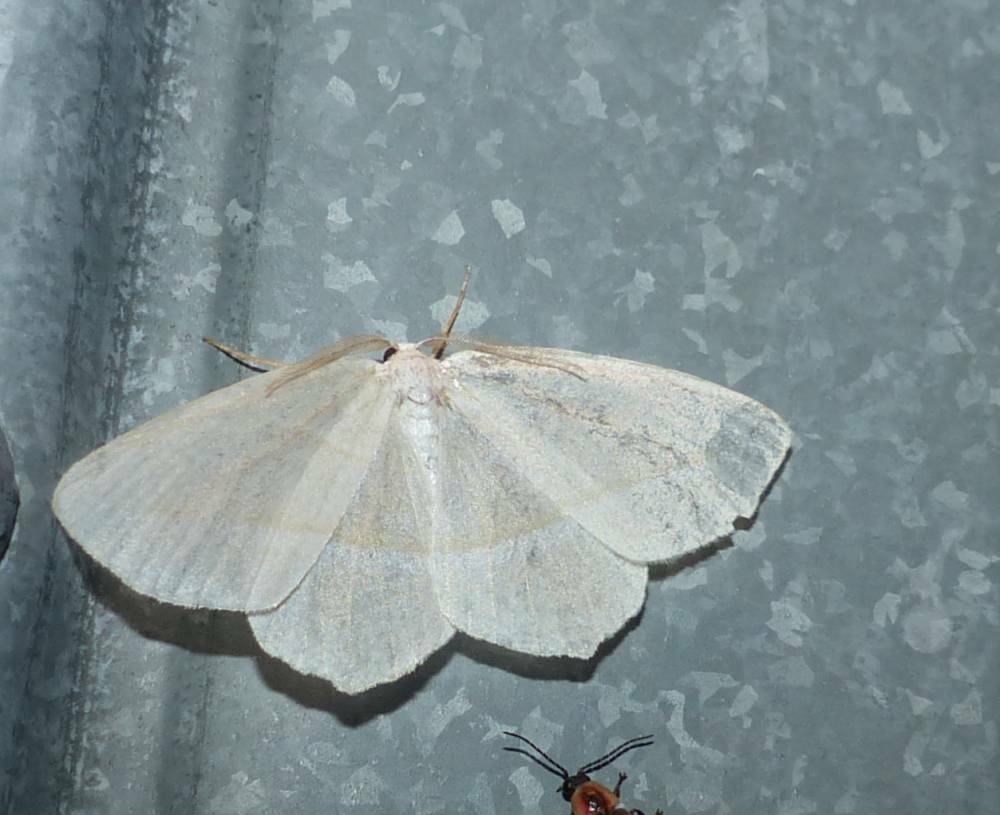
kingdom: Animalia
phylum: Arthropoda
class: Insecta
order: Lepidoptera
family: Geometridae
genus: Campaea
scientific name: Campaea perlata
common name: Fringed looper
